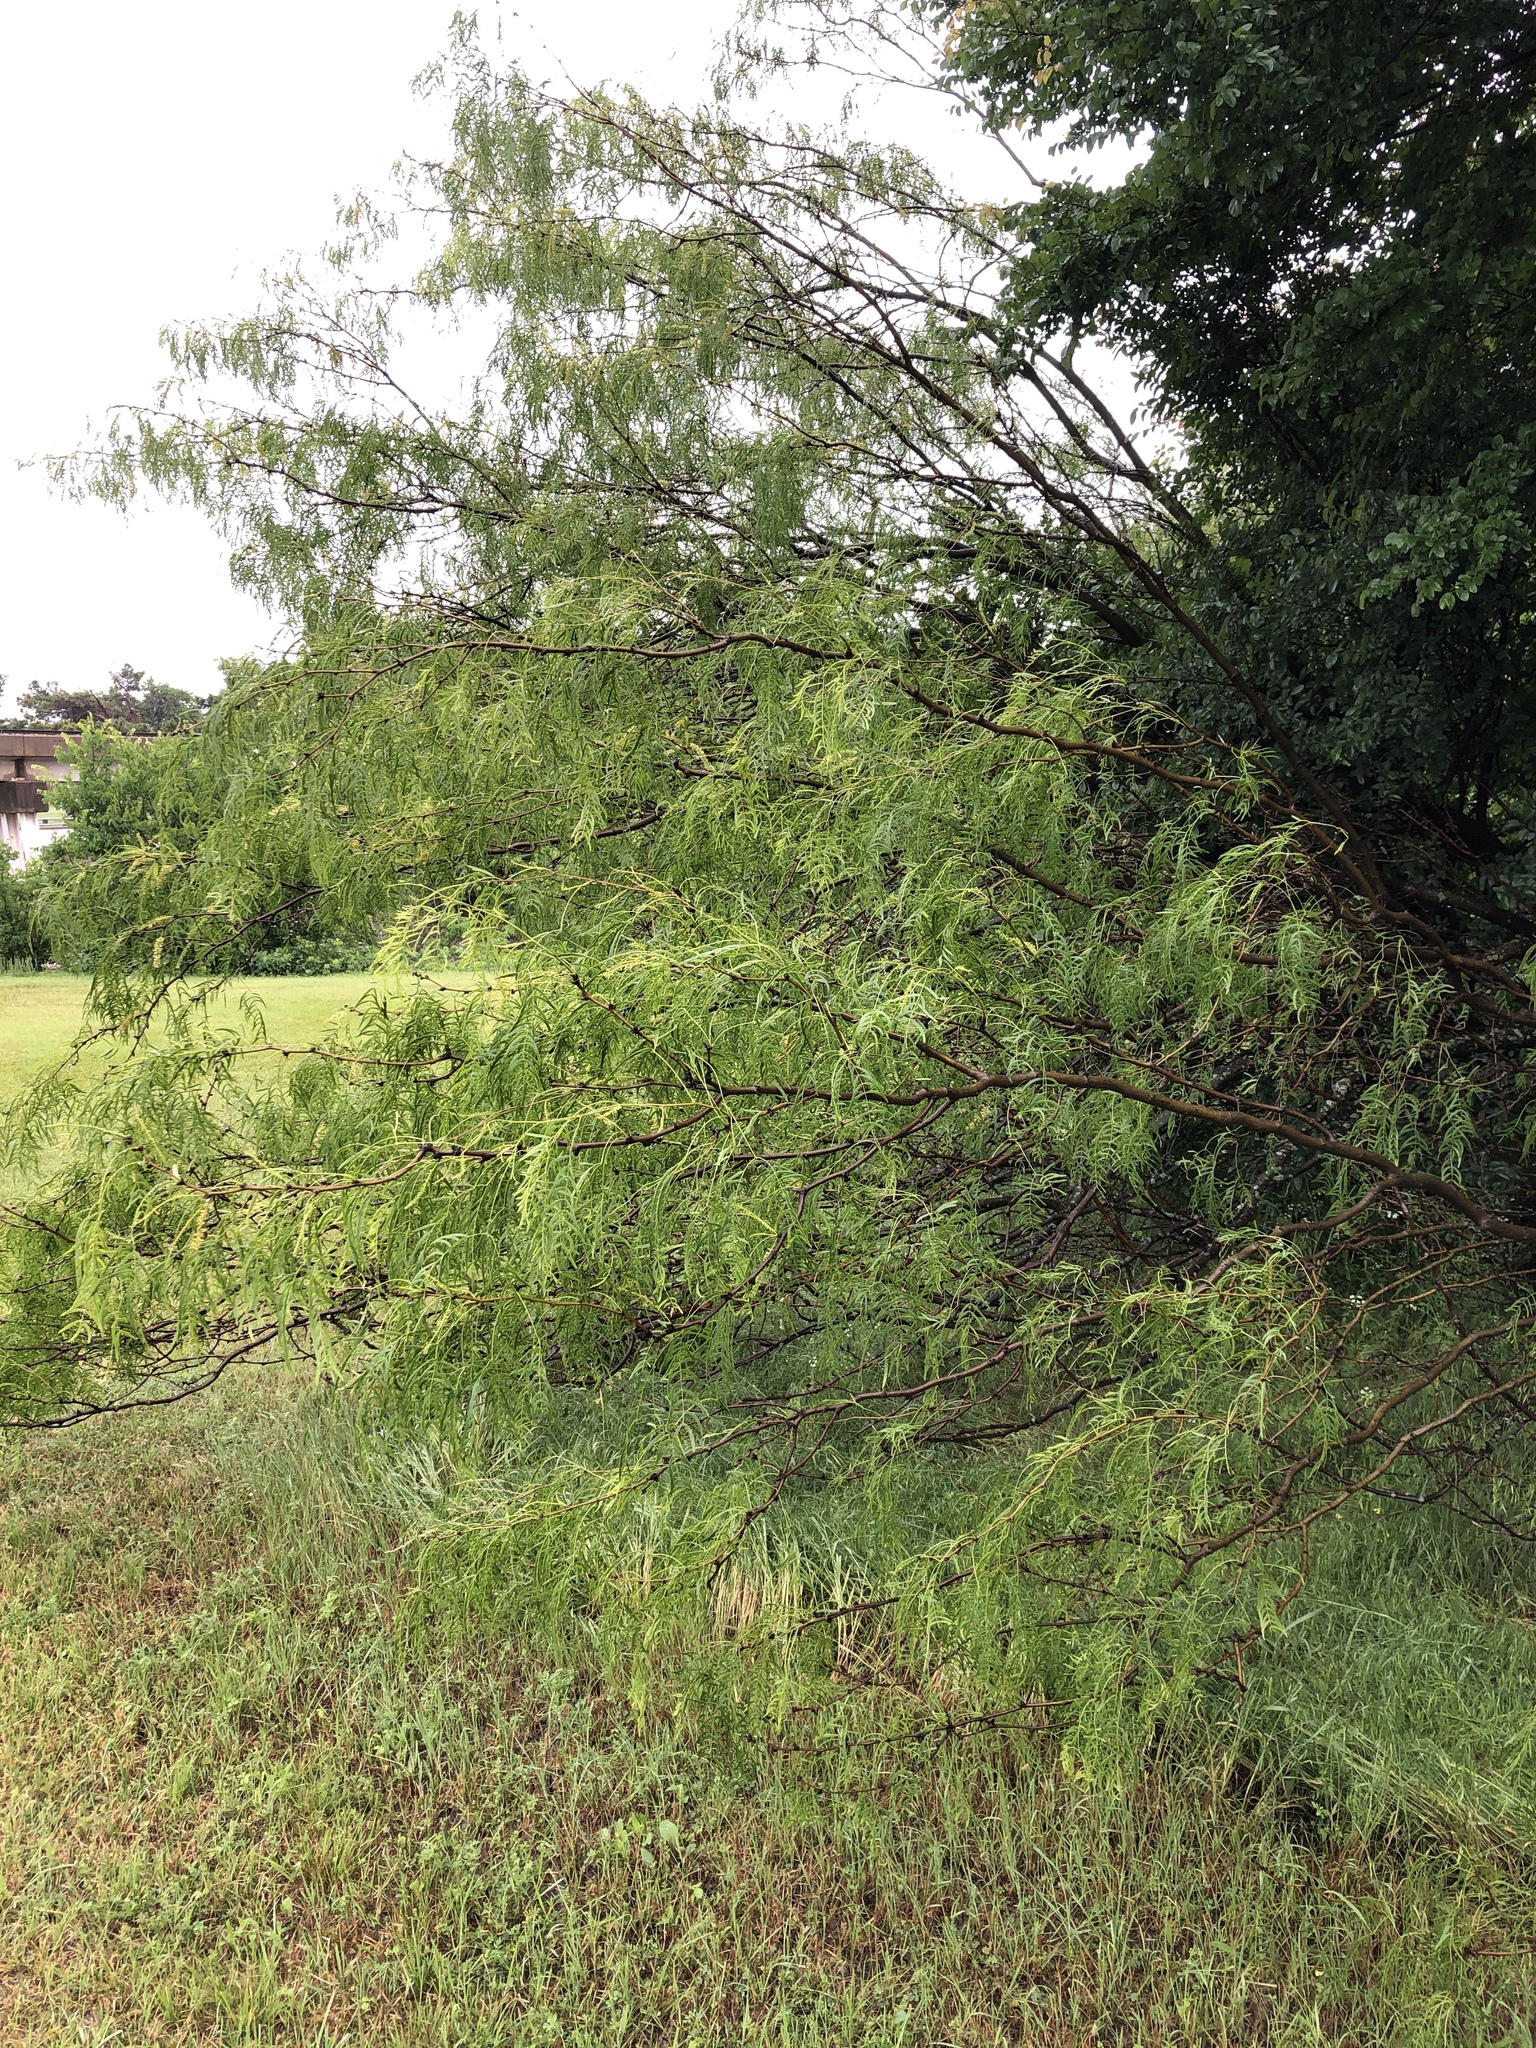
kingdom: Plantae
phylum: Tracheophyta
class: Magnoliopsida
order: Fabales
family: Fabaceae
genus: Prosopis
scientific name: Prosopis glandulosa
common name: Honey mesquite
